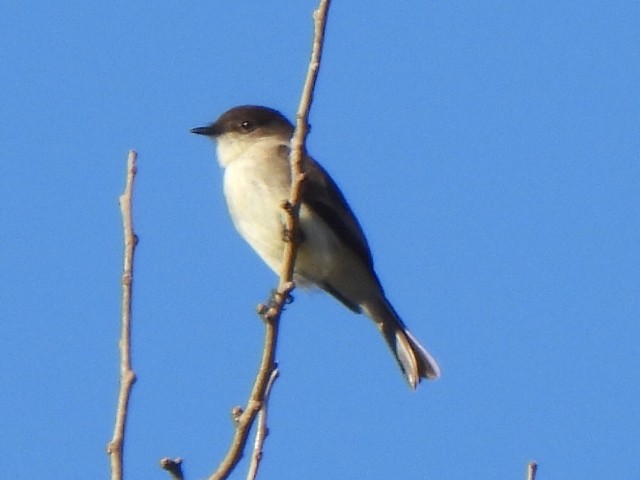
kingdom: Animalia
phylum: Chordata
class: Aves
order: Passeriformes
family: Tyrannidae
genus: Sayornis
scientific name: Sayornis phoebe
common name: Eastern phoebe
